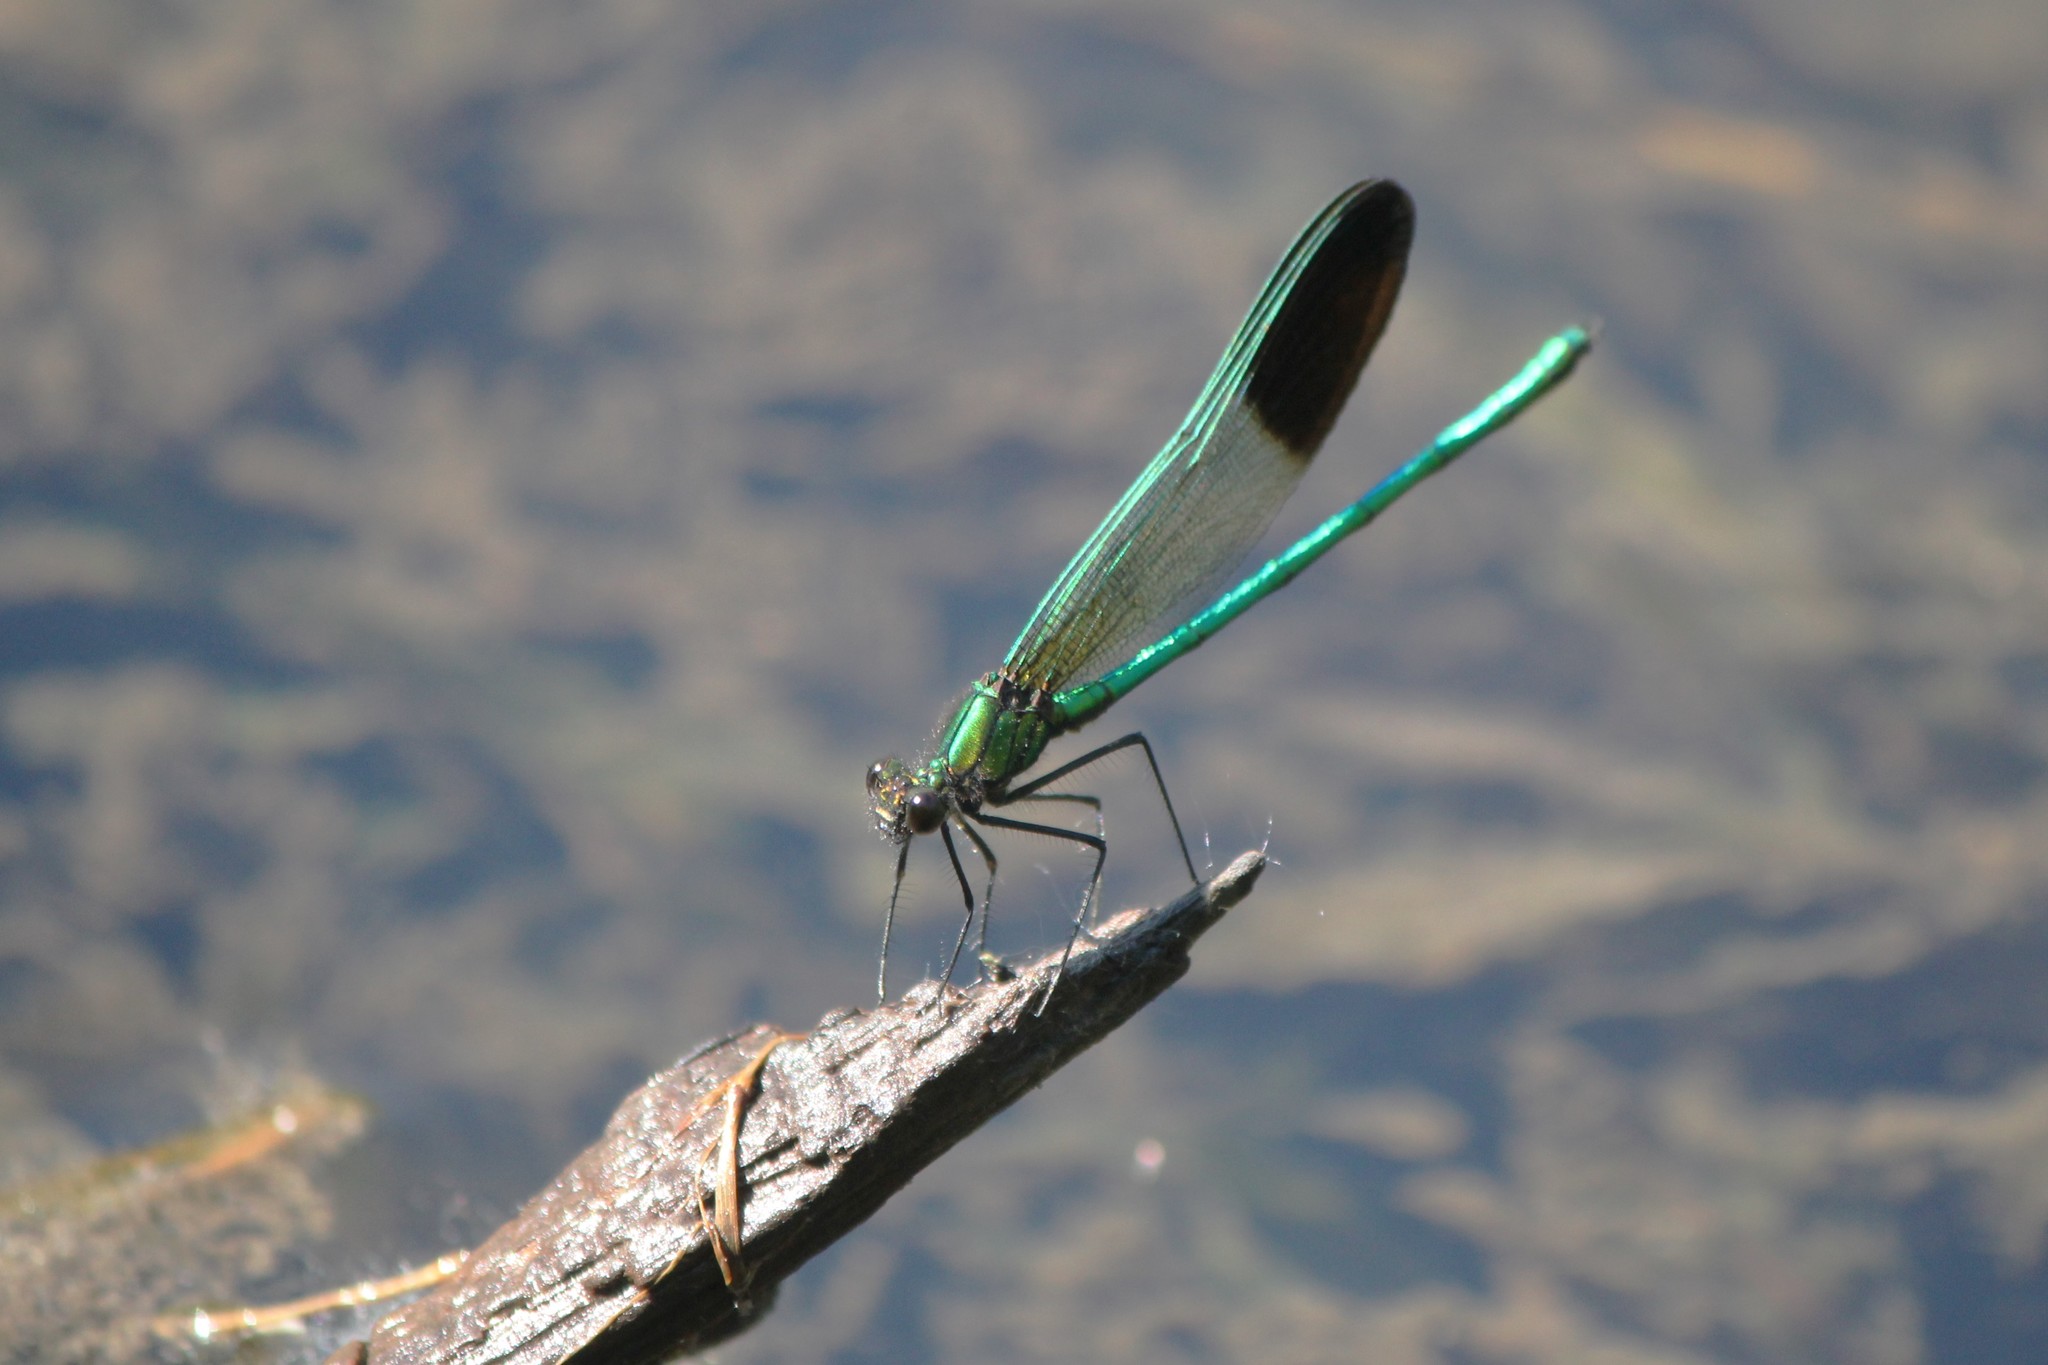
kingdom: Animalia
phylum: Arthropoda
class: Insecta
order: Odonata
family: Calopterygidae
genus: Calopteryx
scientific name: Calopteryx aequabilis
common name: River jewelwing
